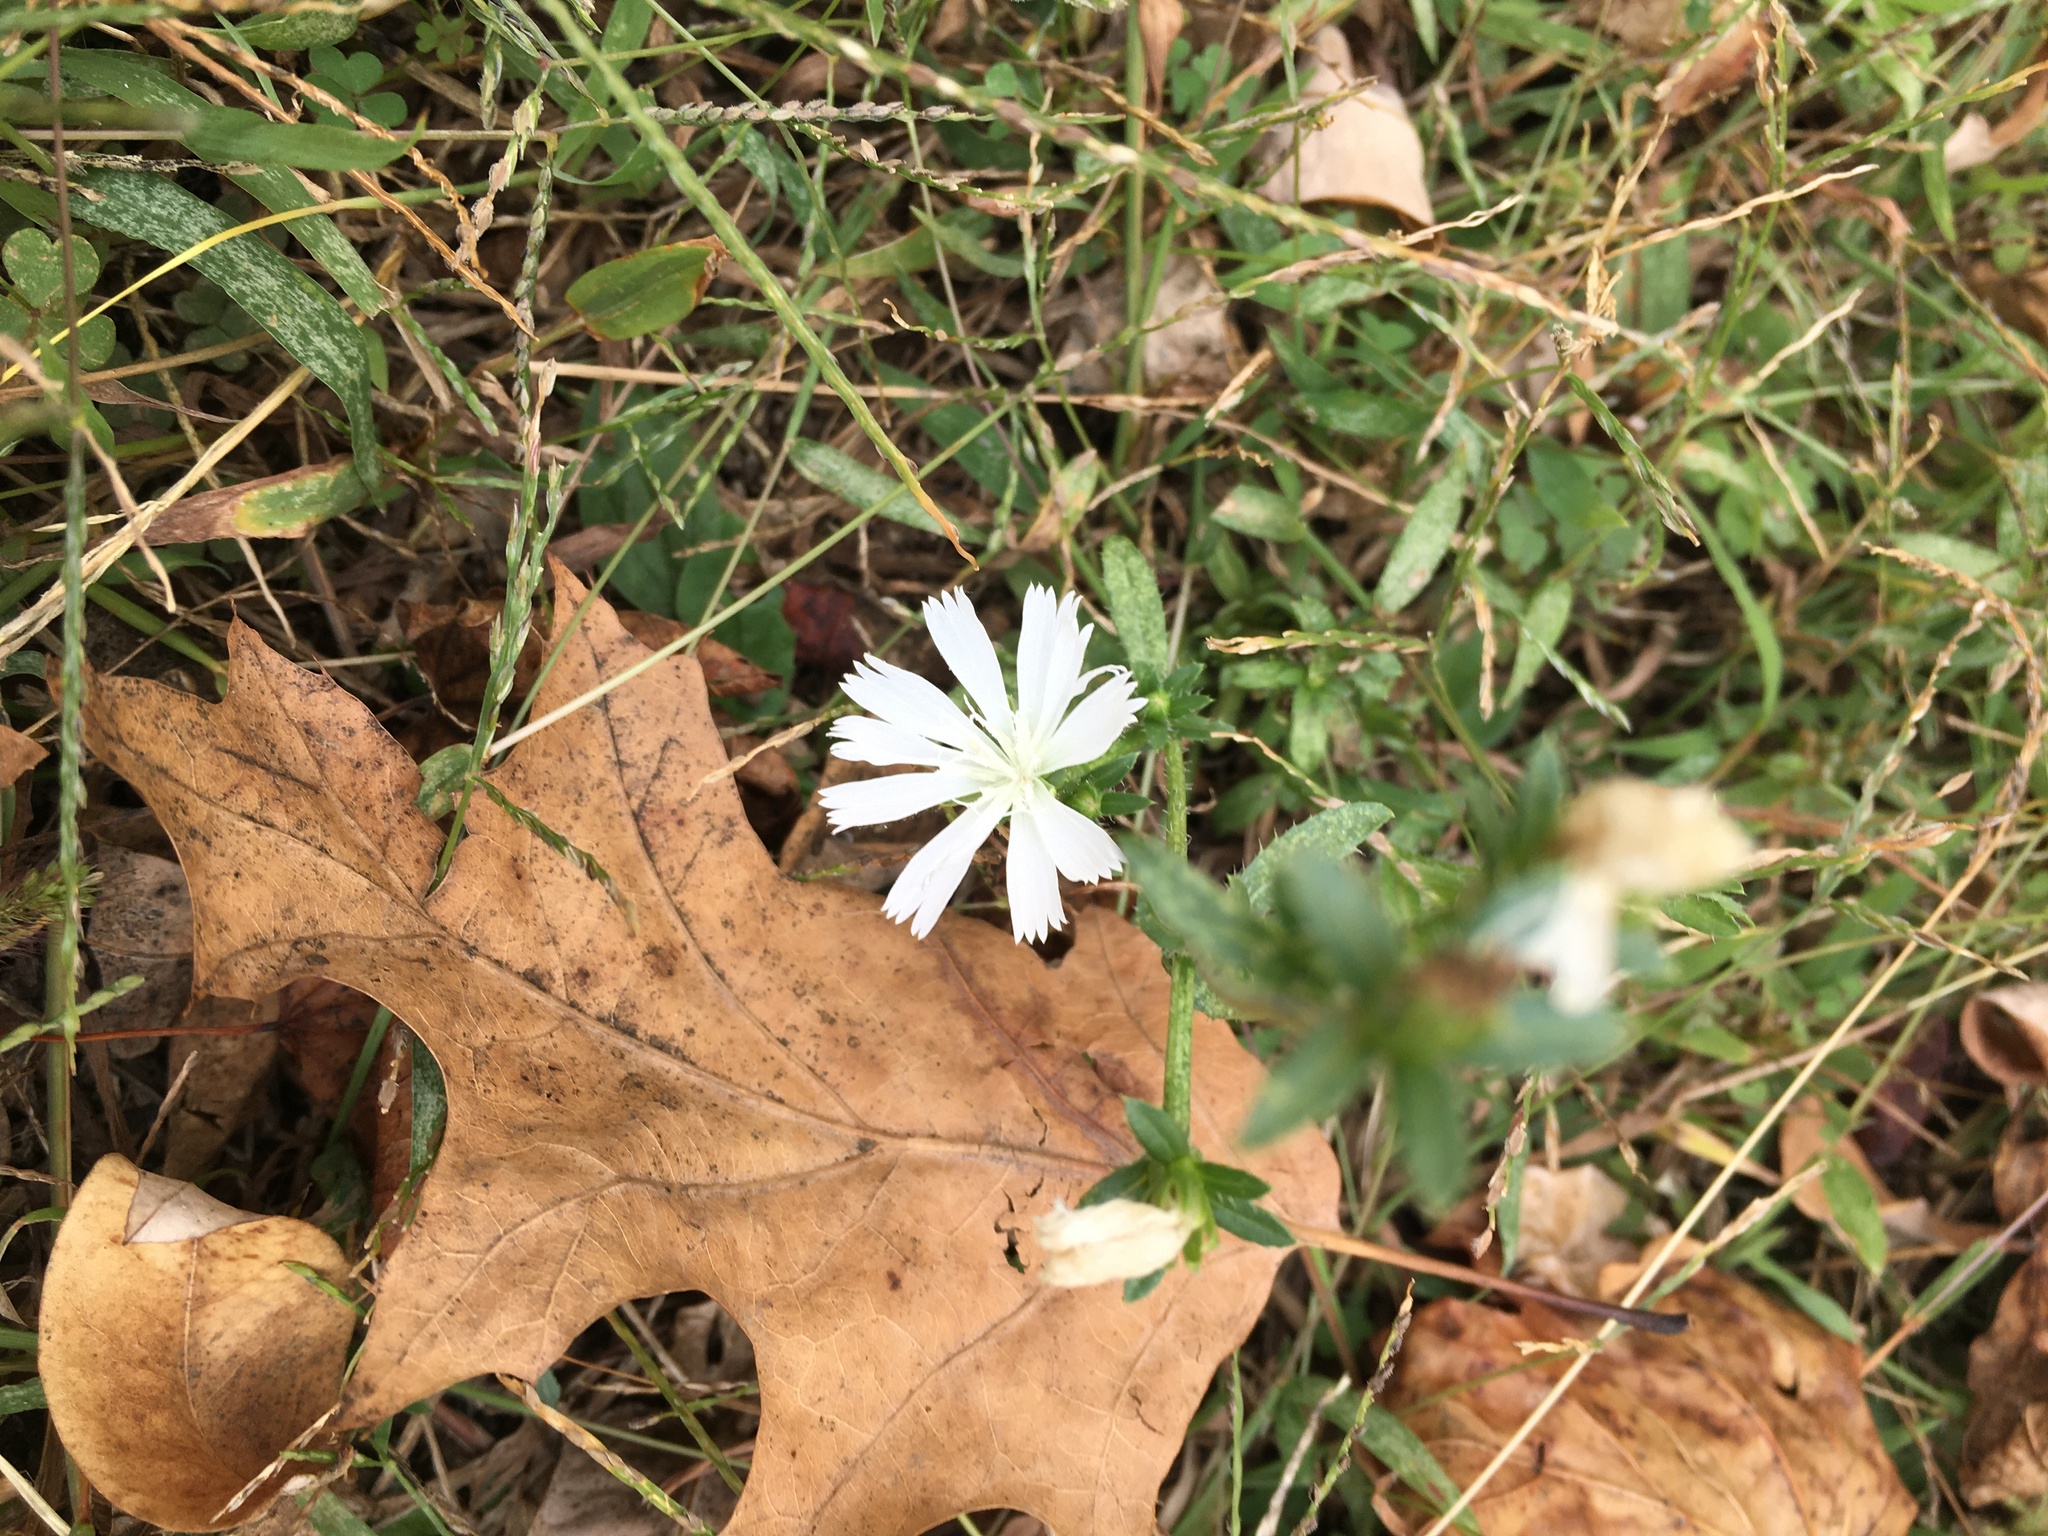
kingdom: Plantae
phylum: Tracheophyta
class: Magnoliopsida
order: Asterales
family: Asteraceae
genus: Cichorium
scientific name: Cichorium intybus
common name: Chicory
